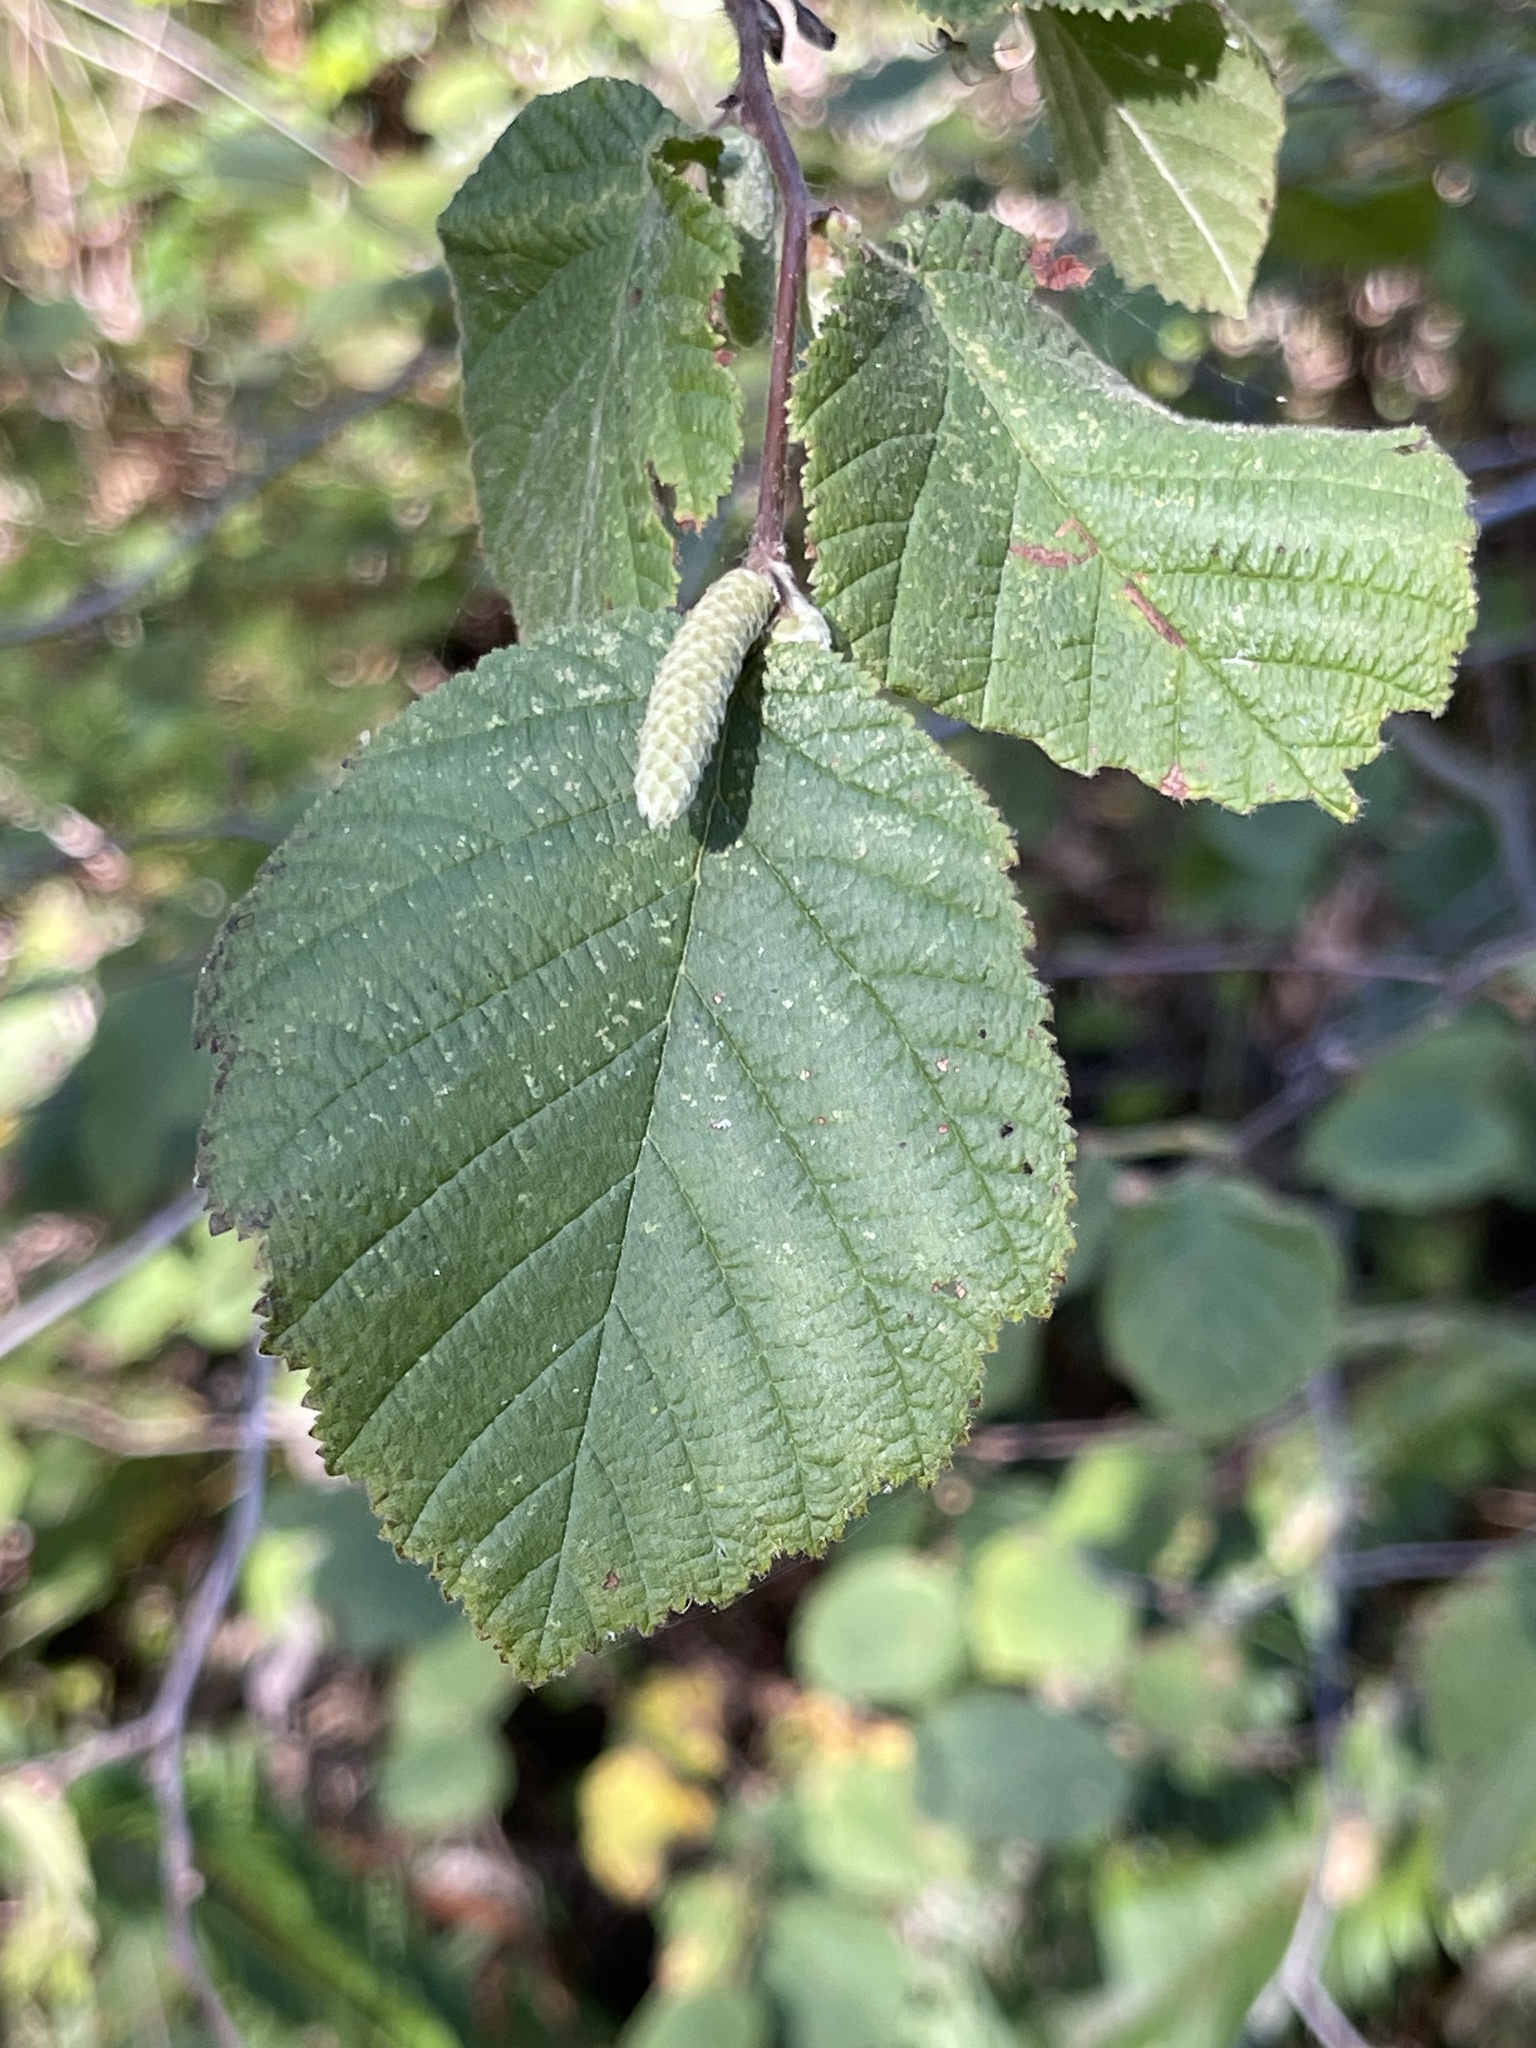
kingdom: Plantae
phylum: Tracheophyta
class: Magnoliopsida
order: Fagales
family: Betulaceae
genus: Corylus
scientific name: Corylus cornuta
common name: Beaked hazel
